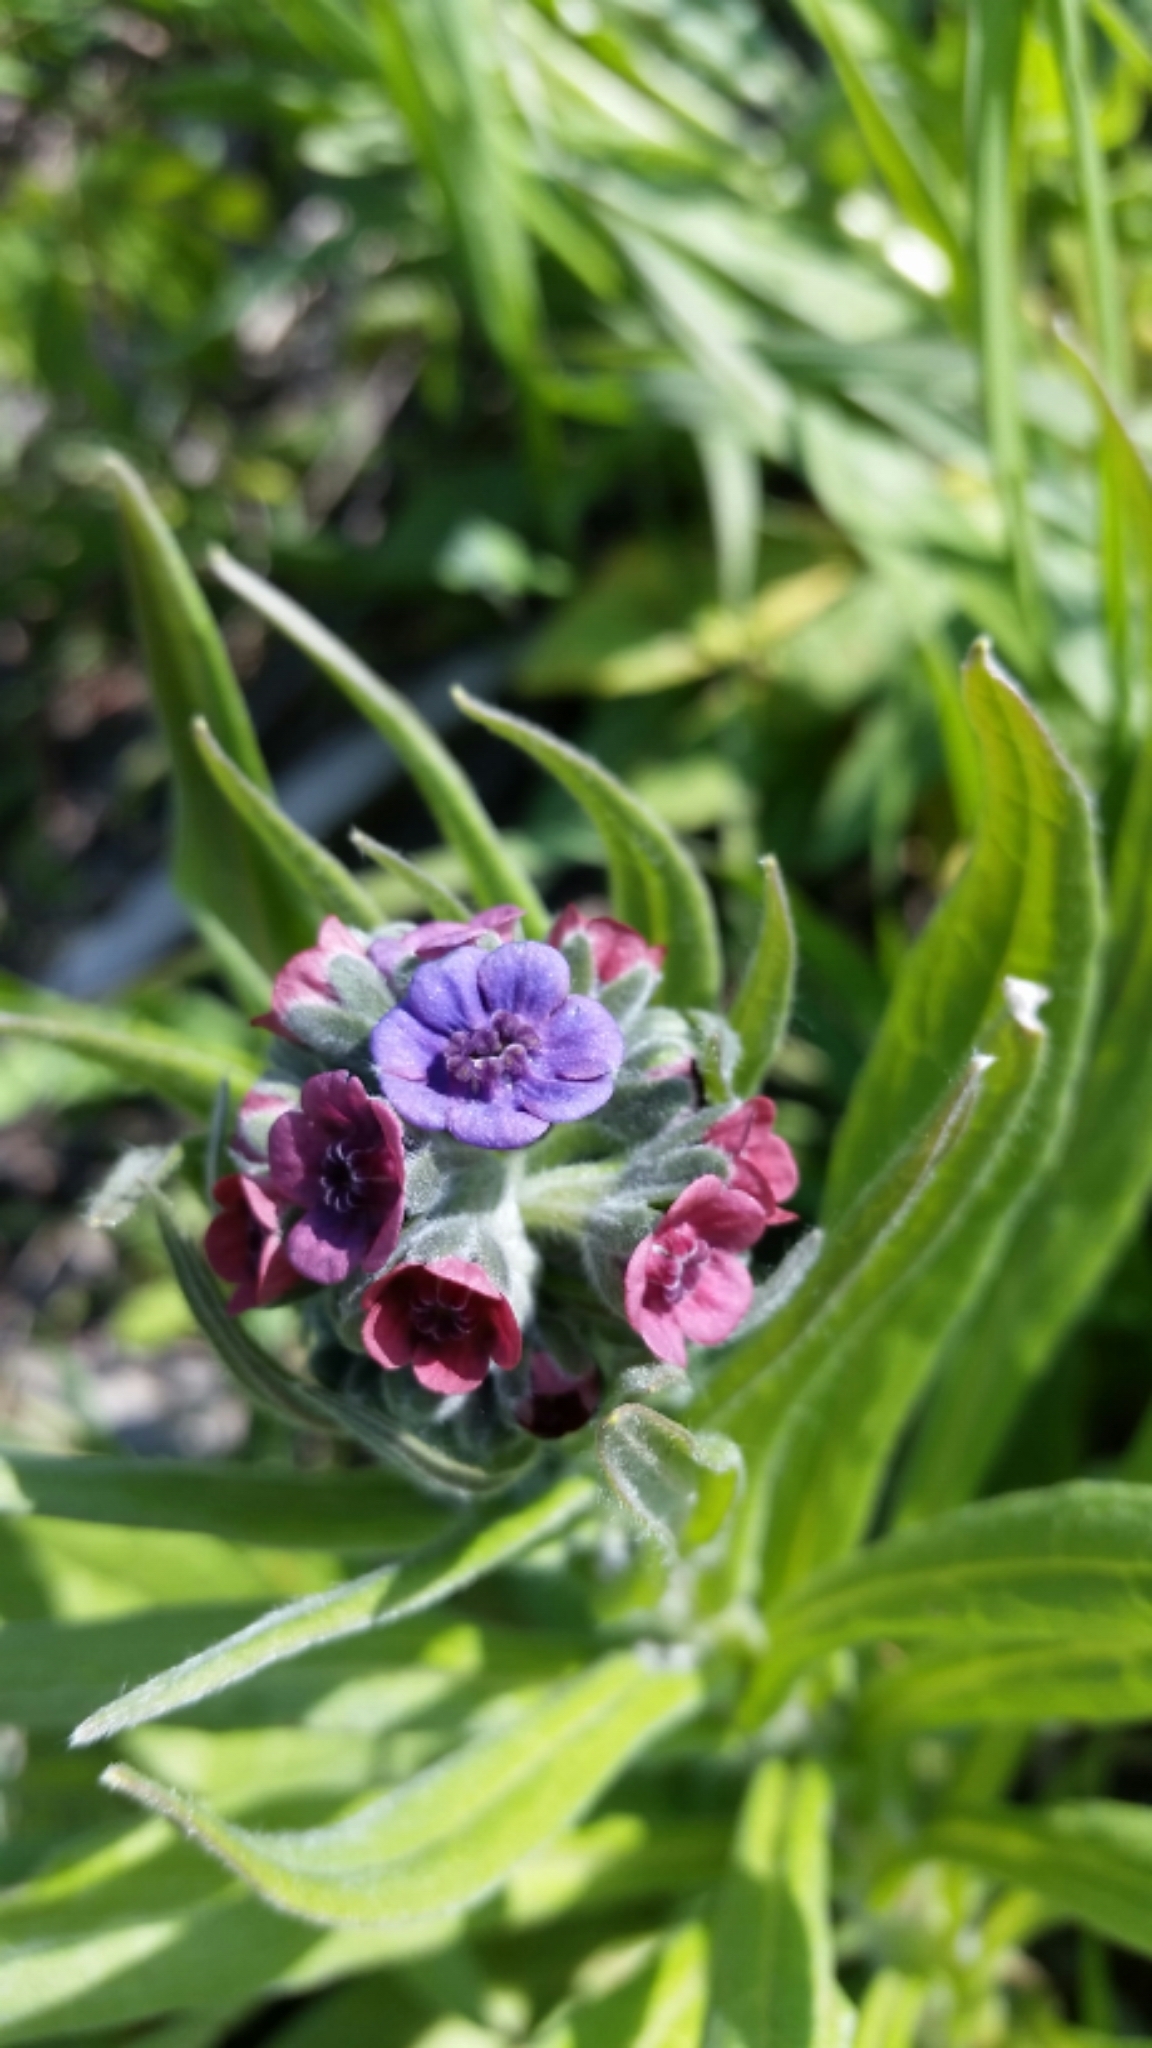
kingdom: Plantae
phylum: Tracheophyta
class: Magnoliopsida
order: Boraginales
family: Boraginaceae
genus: Cynoglossum
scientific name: Cynoglossum officinale
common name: Hound's-tongue
